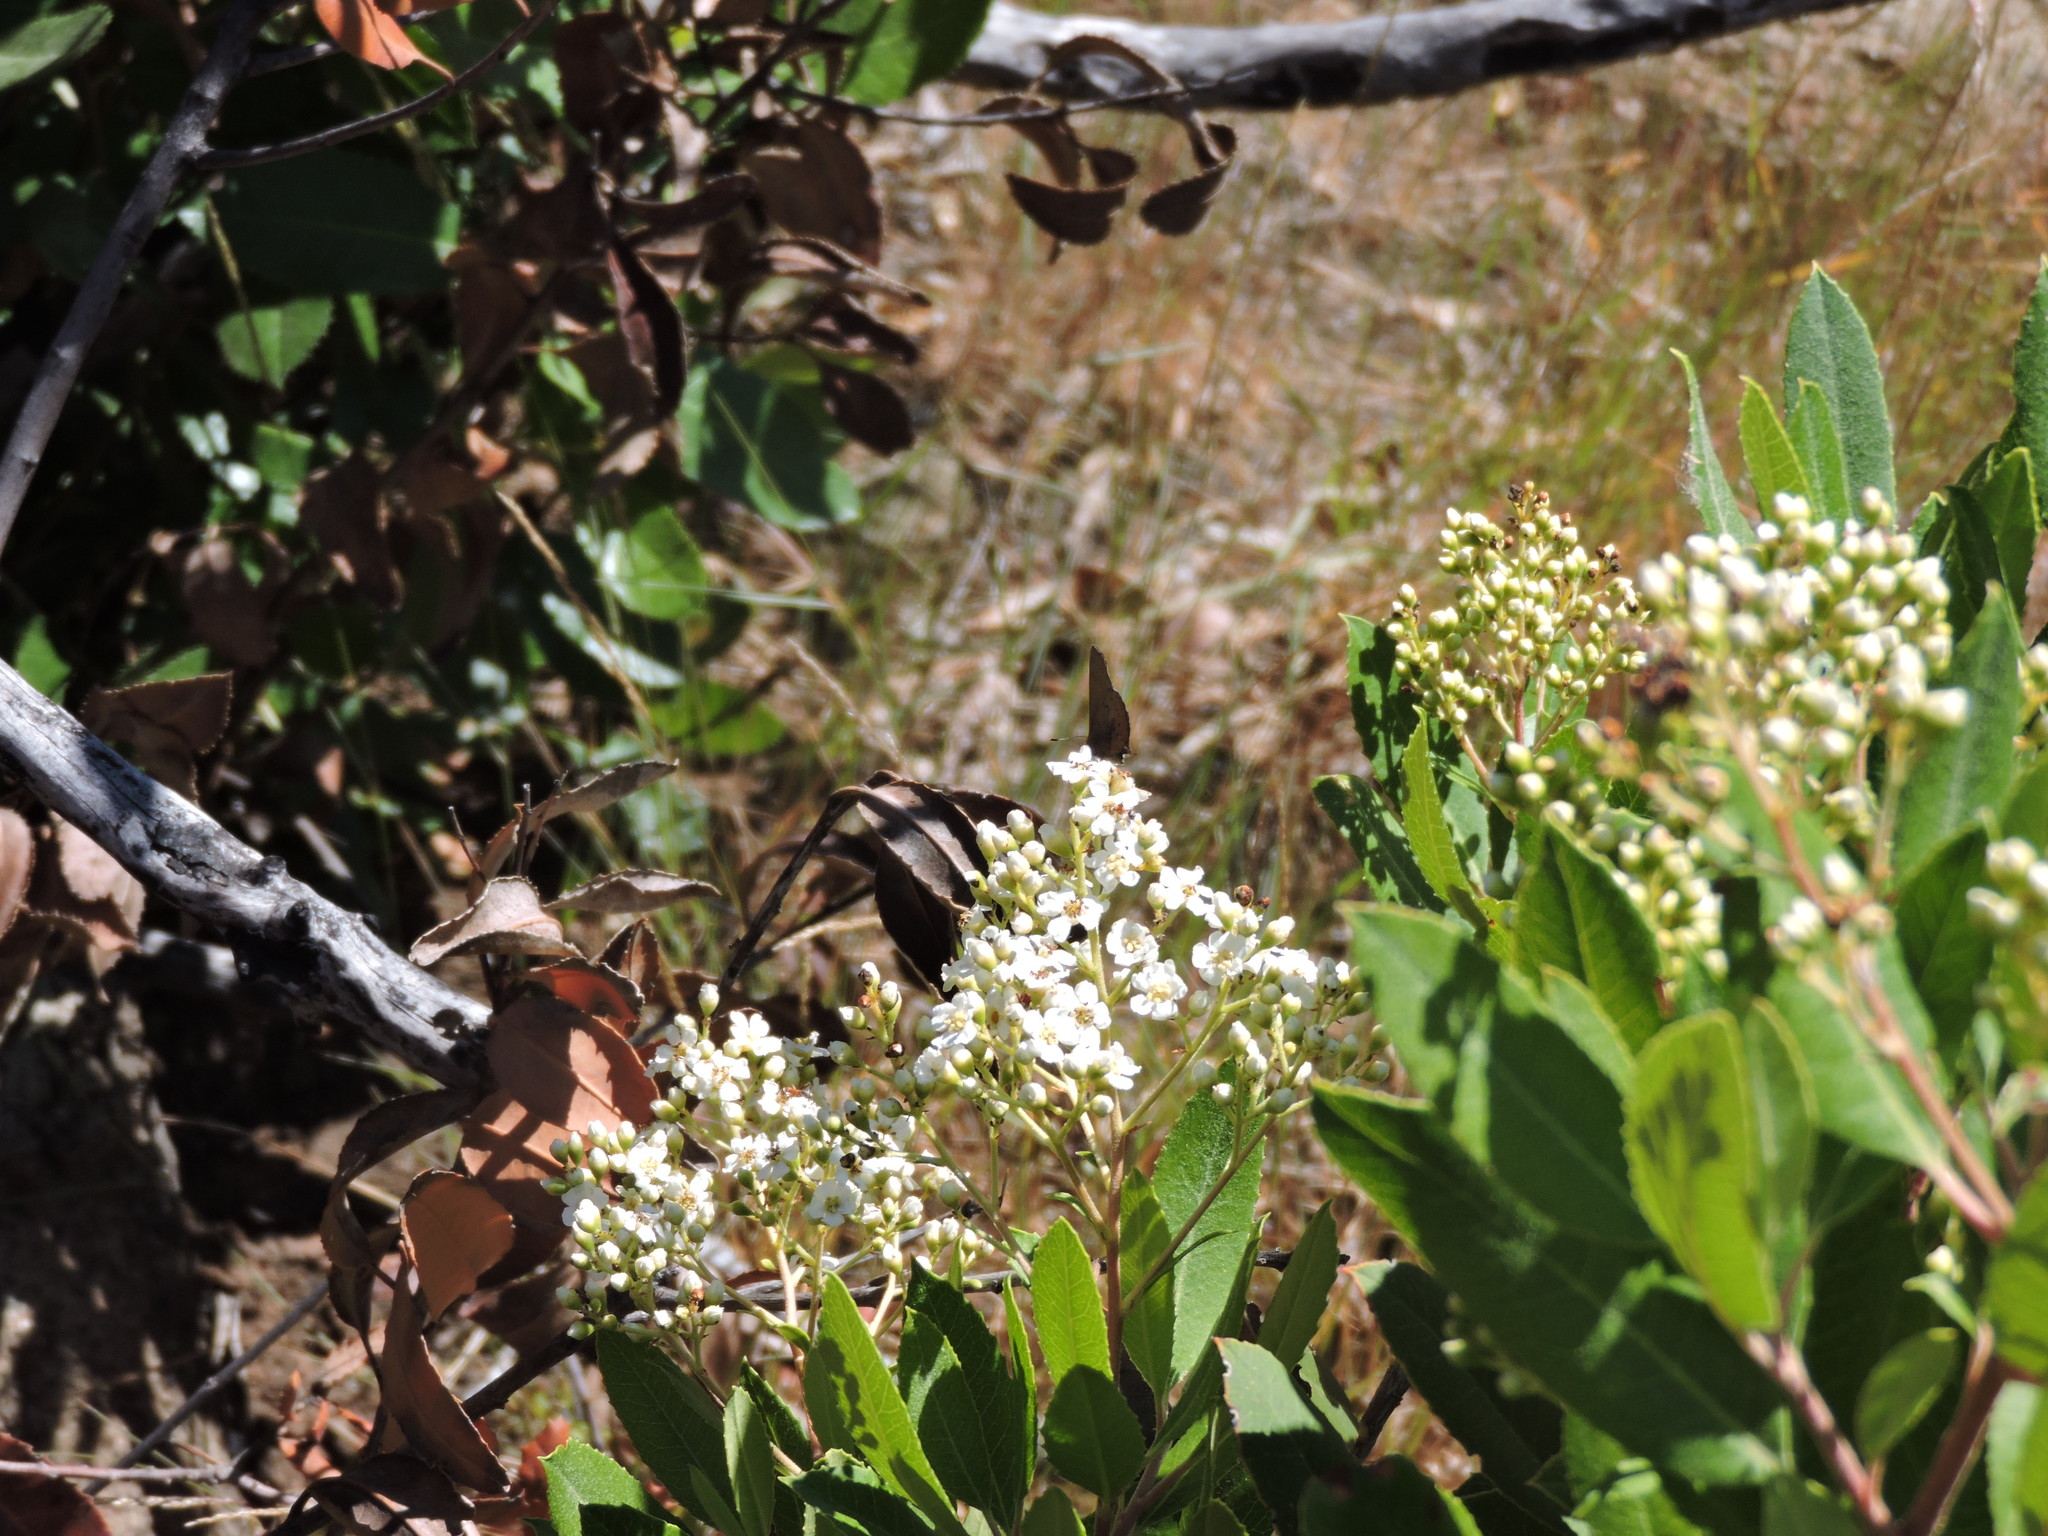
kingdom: Plantae
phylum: Tracheophyta
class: Magnoliopsida
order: Rosales
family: Rosaceae
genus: Heteromeles
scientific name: Heteromeles arbutifolia
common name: California-holly
